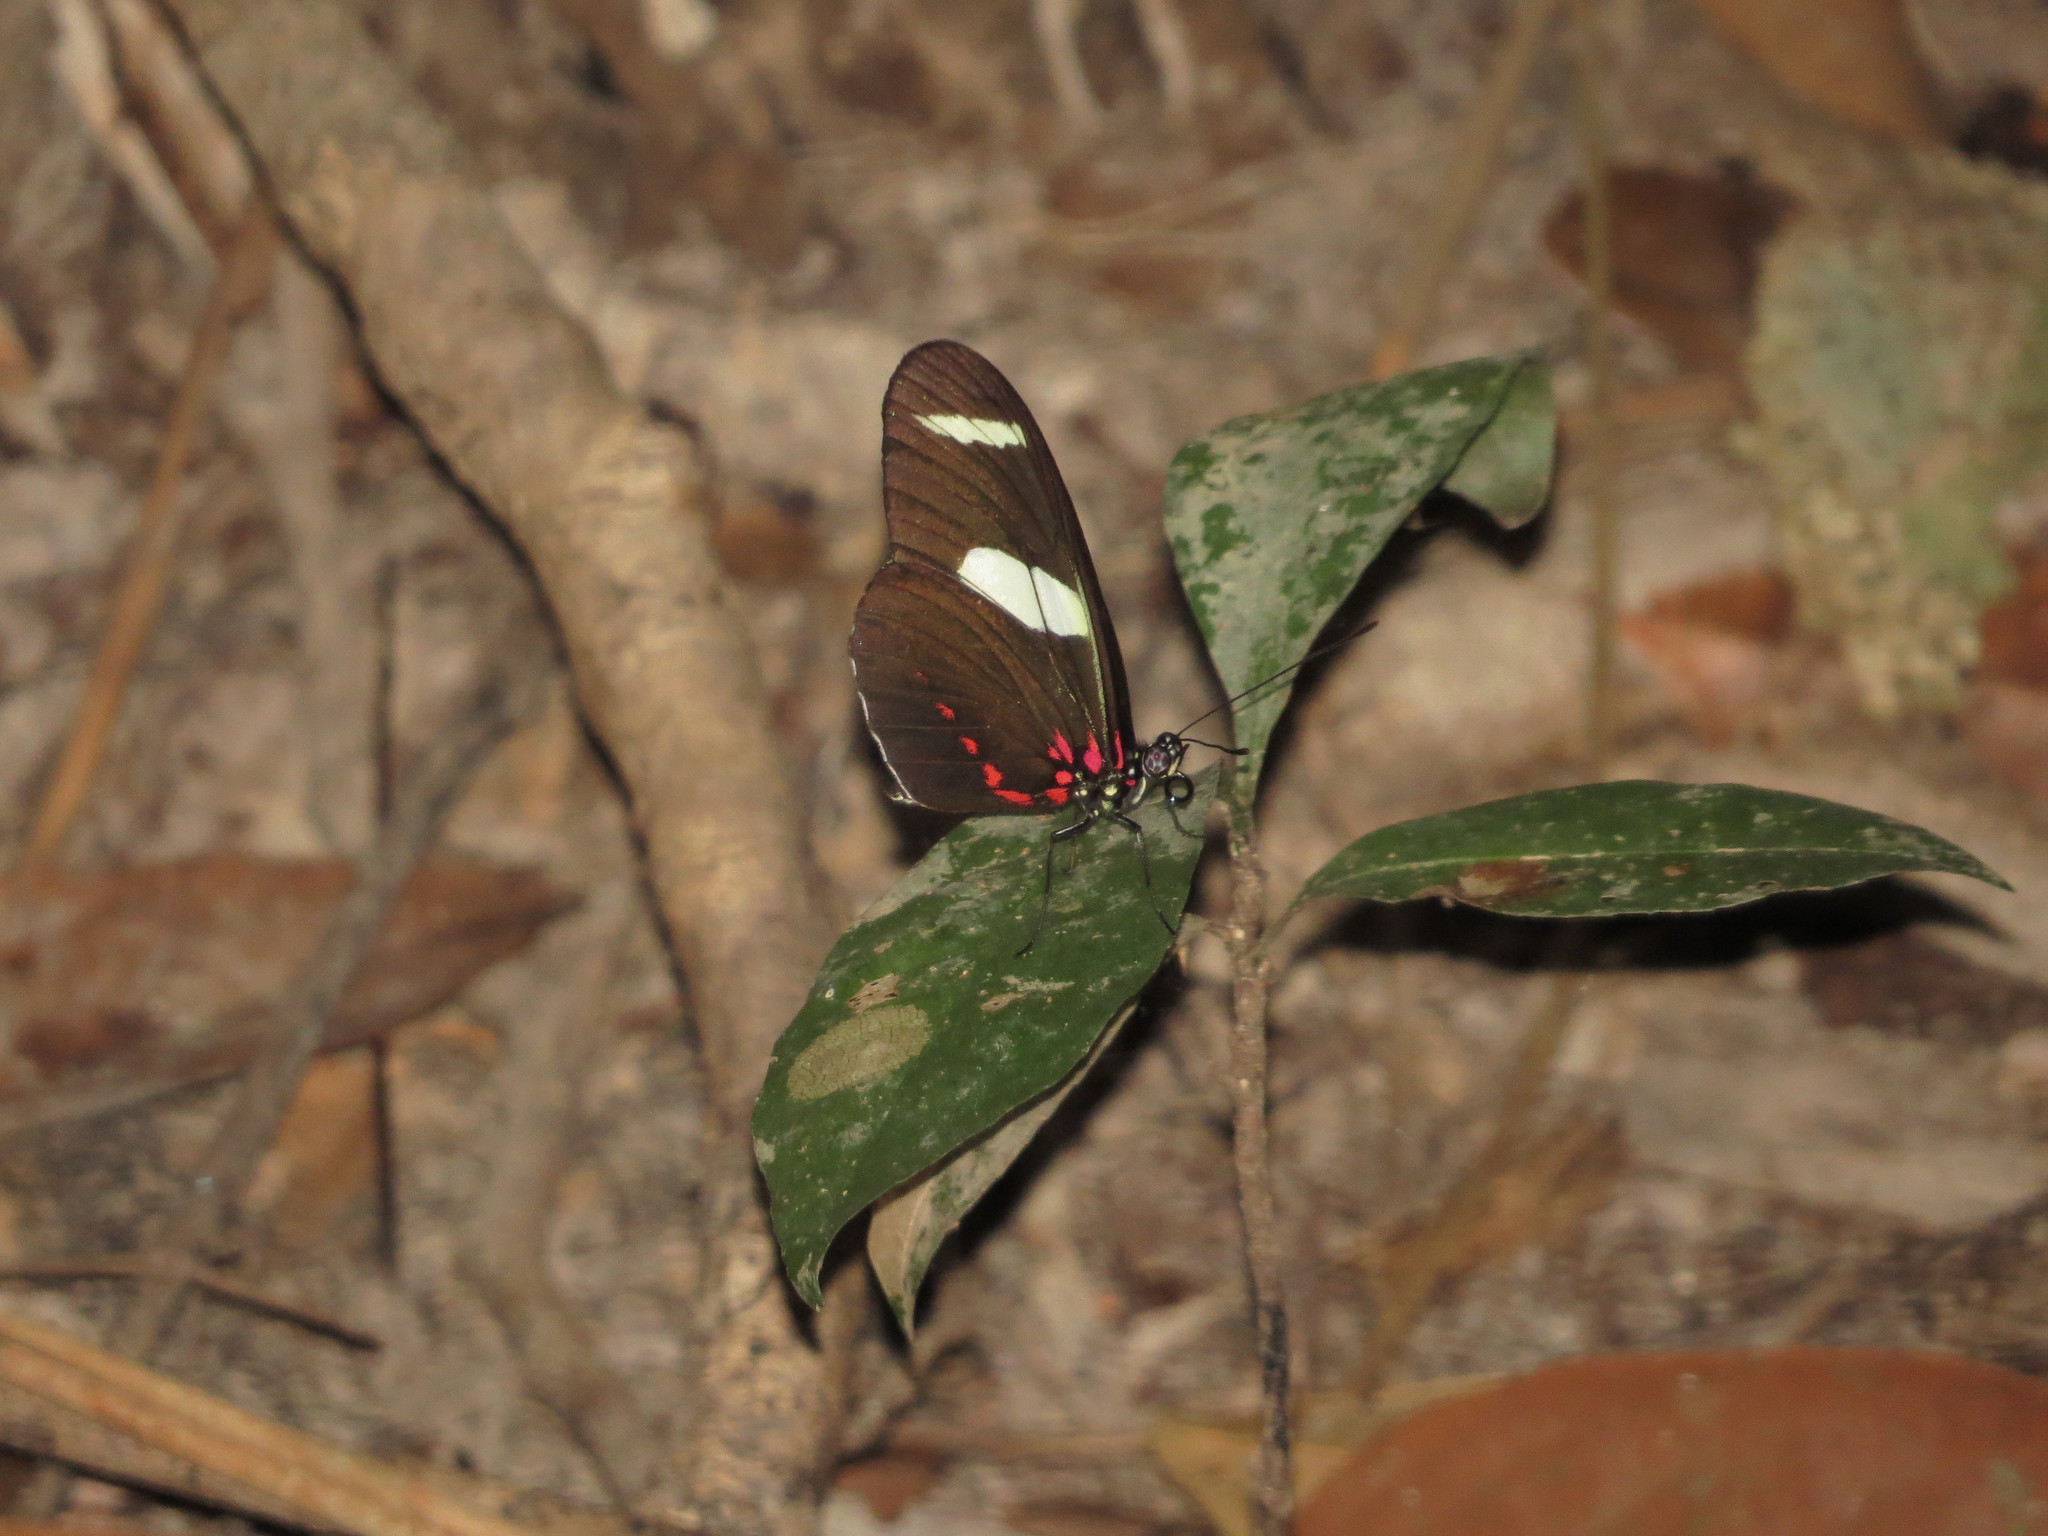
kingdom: Animalia
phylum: Arthropoda
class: Insecta
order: Lepidoptera
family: Nymphalidae
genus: Heliconius
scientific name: Heliconius sara
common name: Sara longwing
